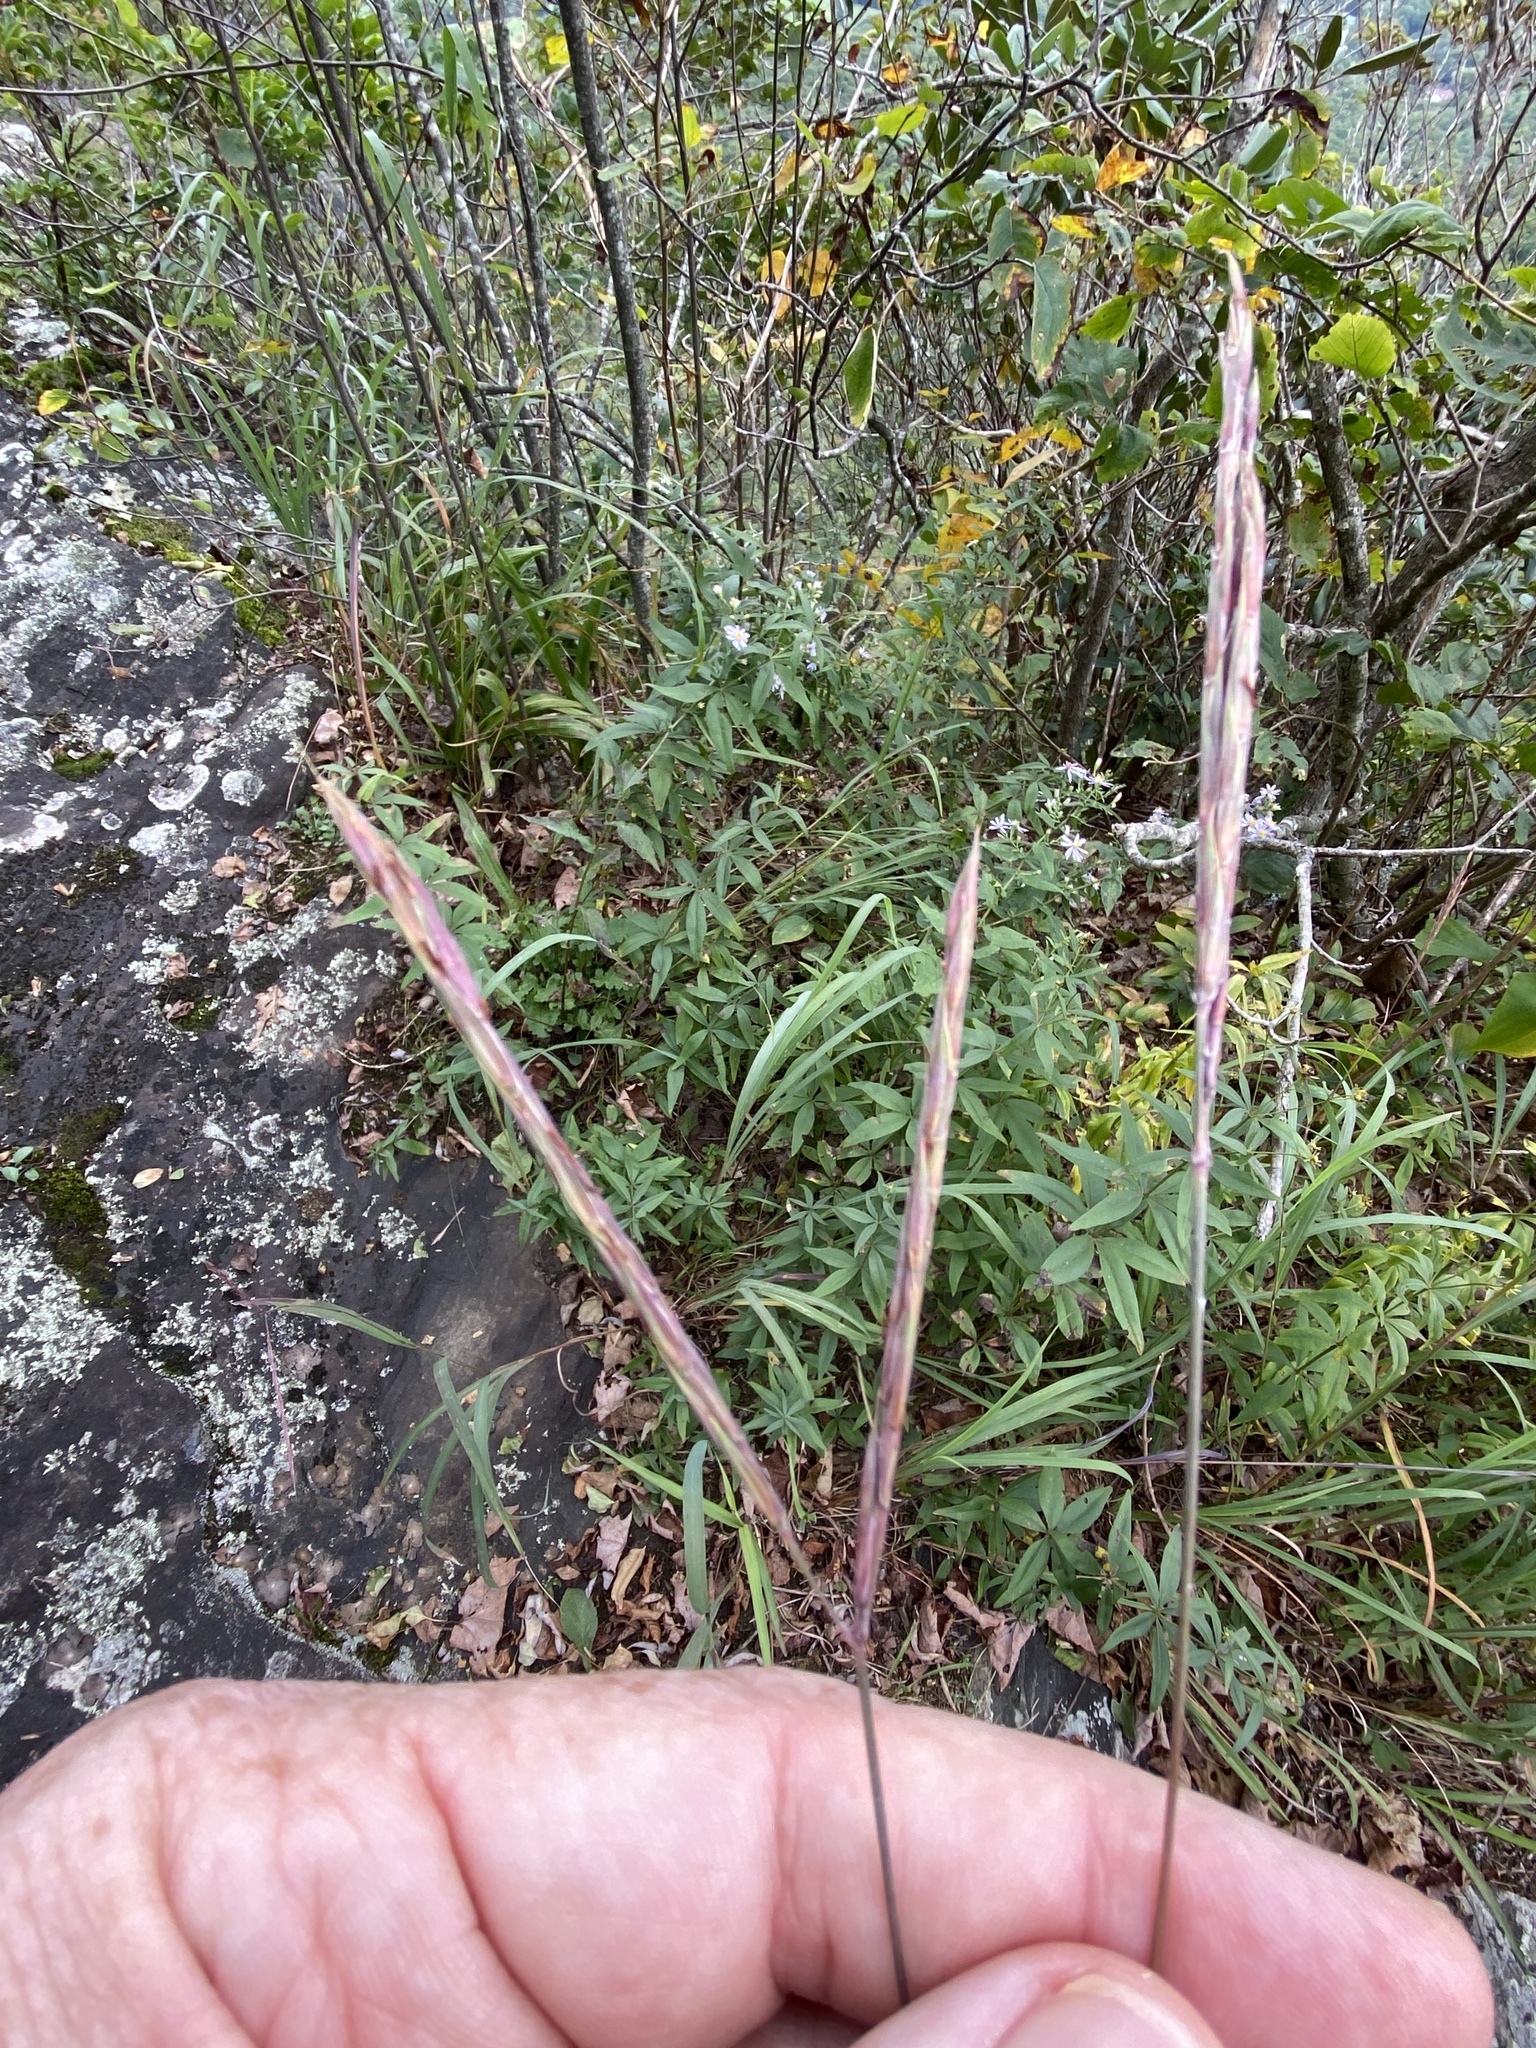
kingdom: Plantae
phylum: Tracheophyta
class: Liliopsida
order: Poales
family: Poaceae
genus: Andropogon
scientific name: Andropogon gerardi
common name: Big bluestem
